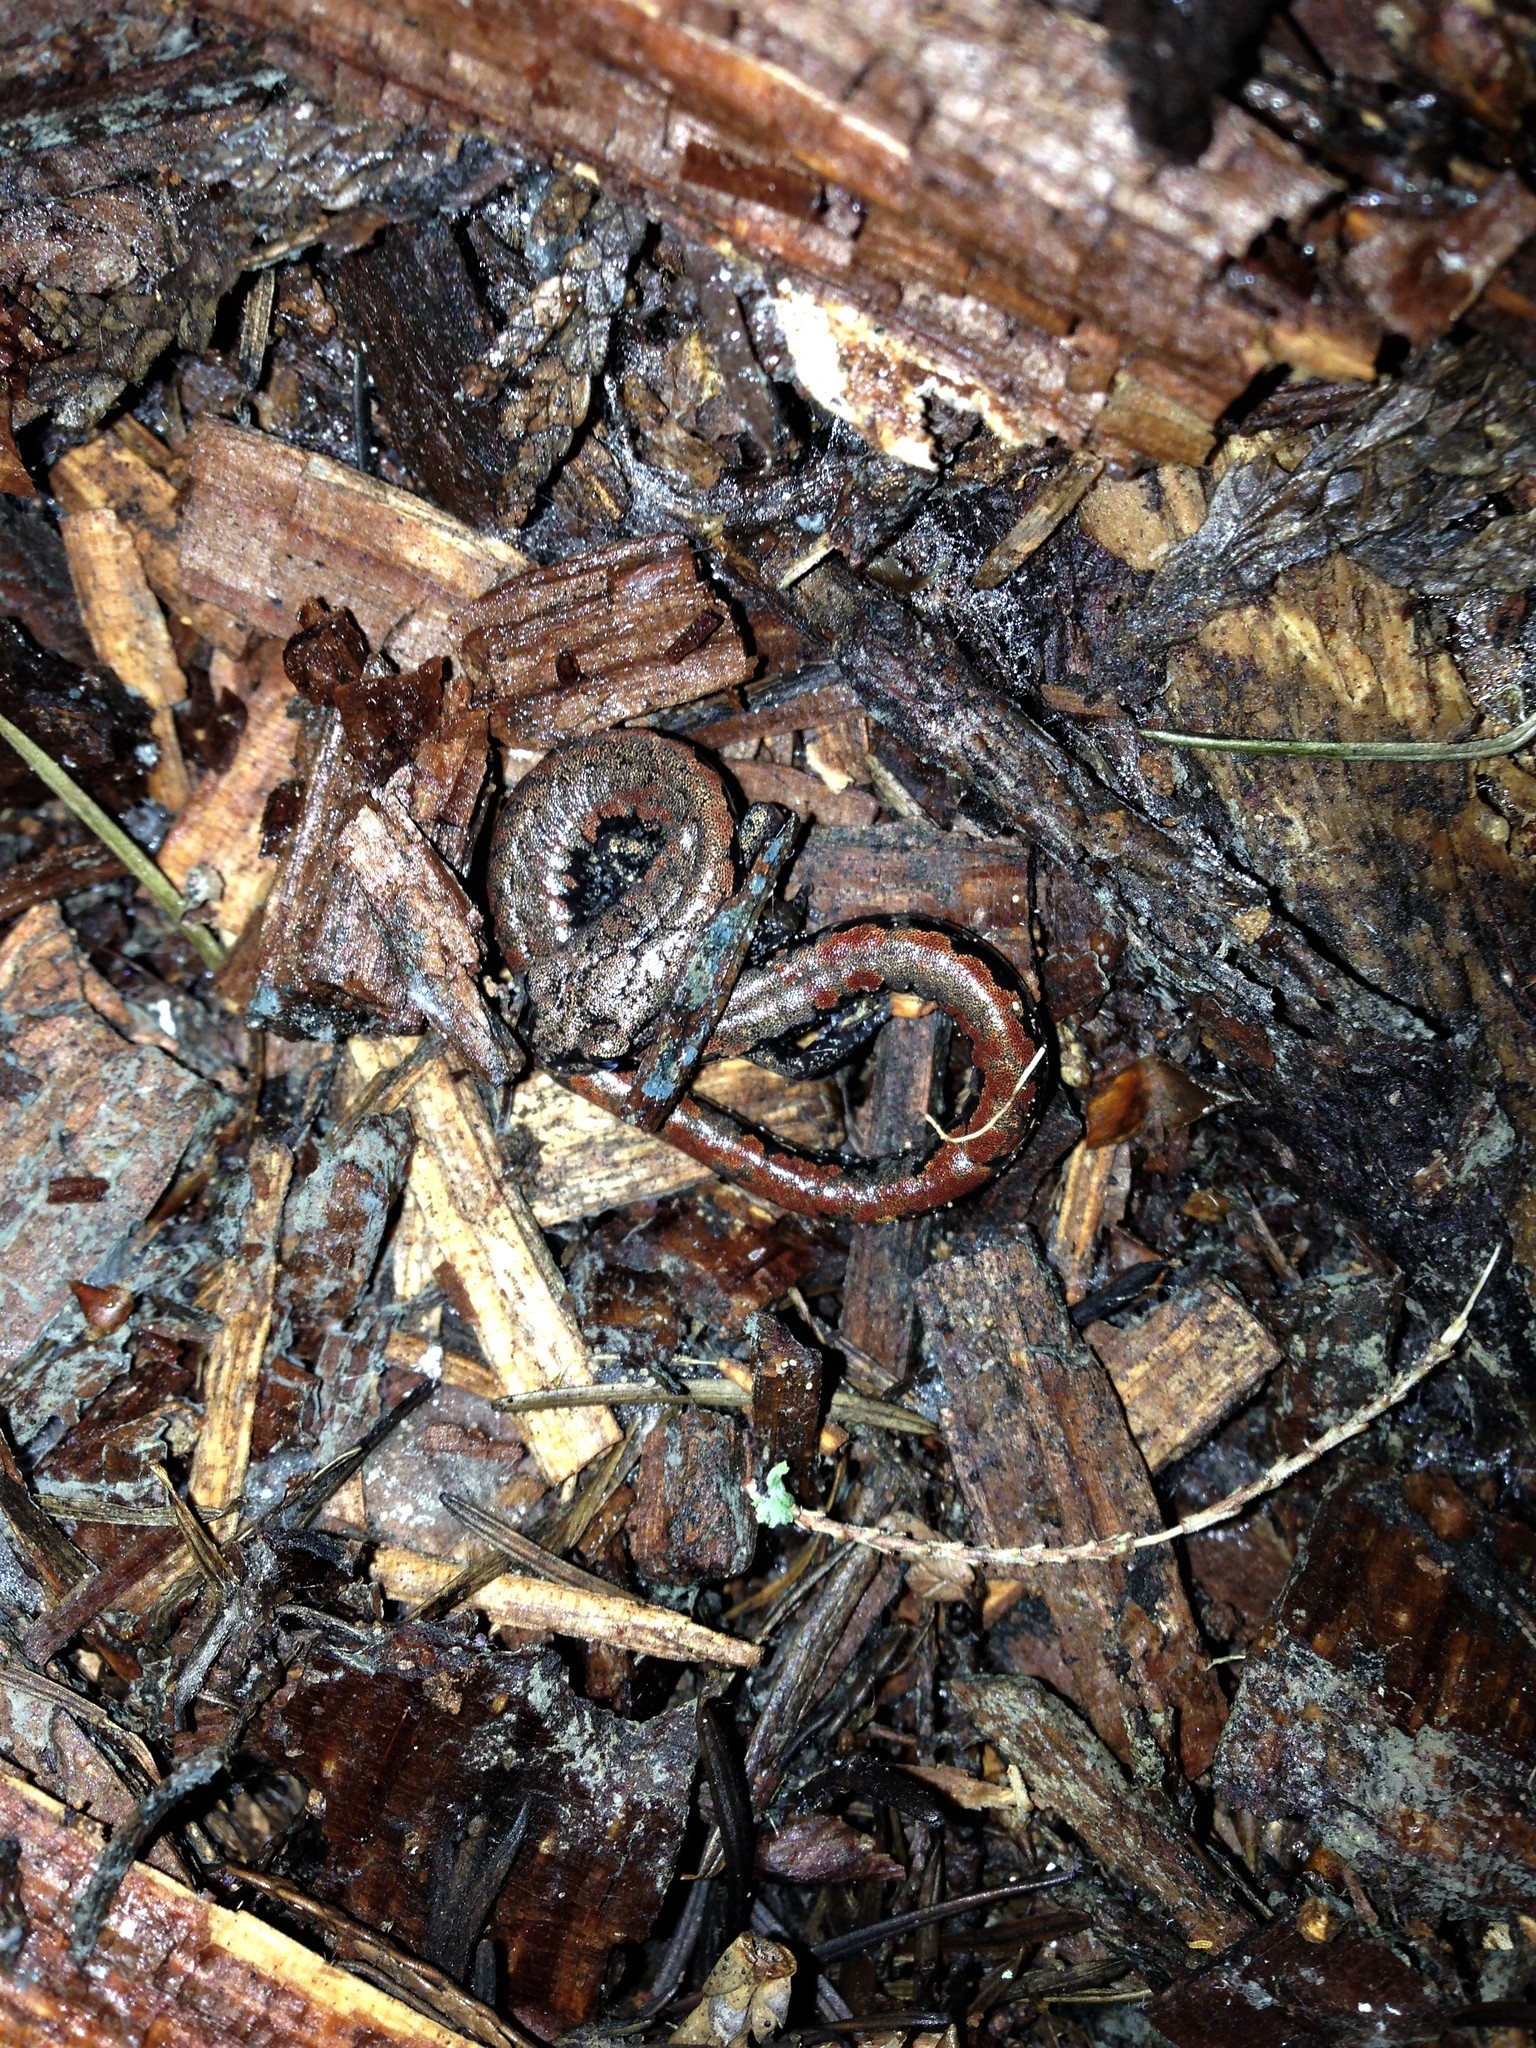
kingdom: Animalia
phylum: Chordata
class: Amphibia
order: Caudata
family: Plethodontidae
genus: Batrachoseps
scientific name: Batrachoseps wrighti
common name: Oregon slender salamander
